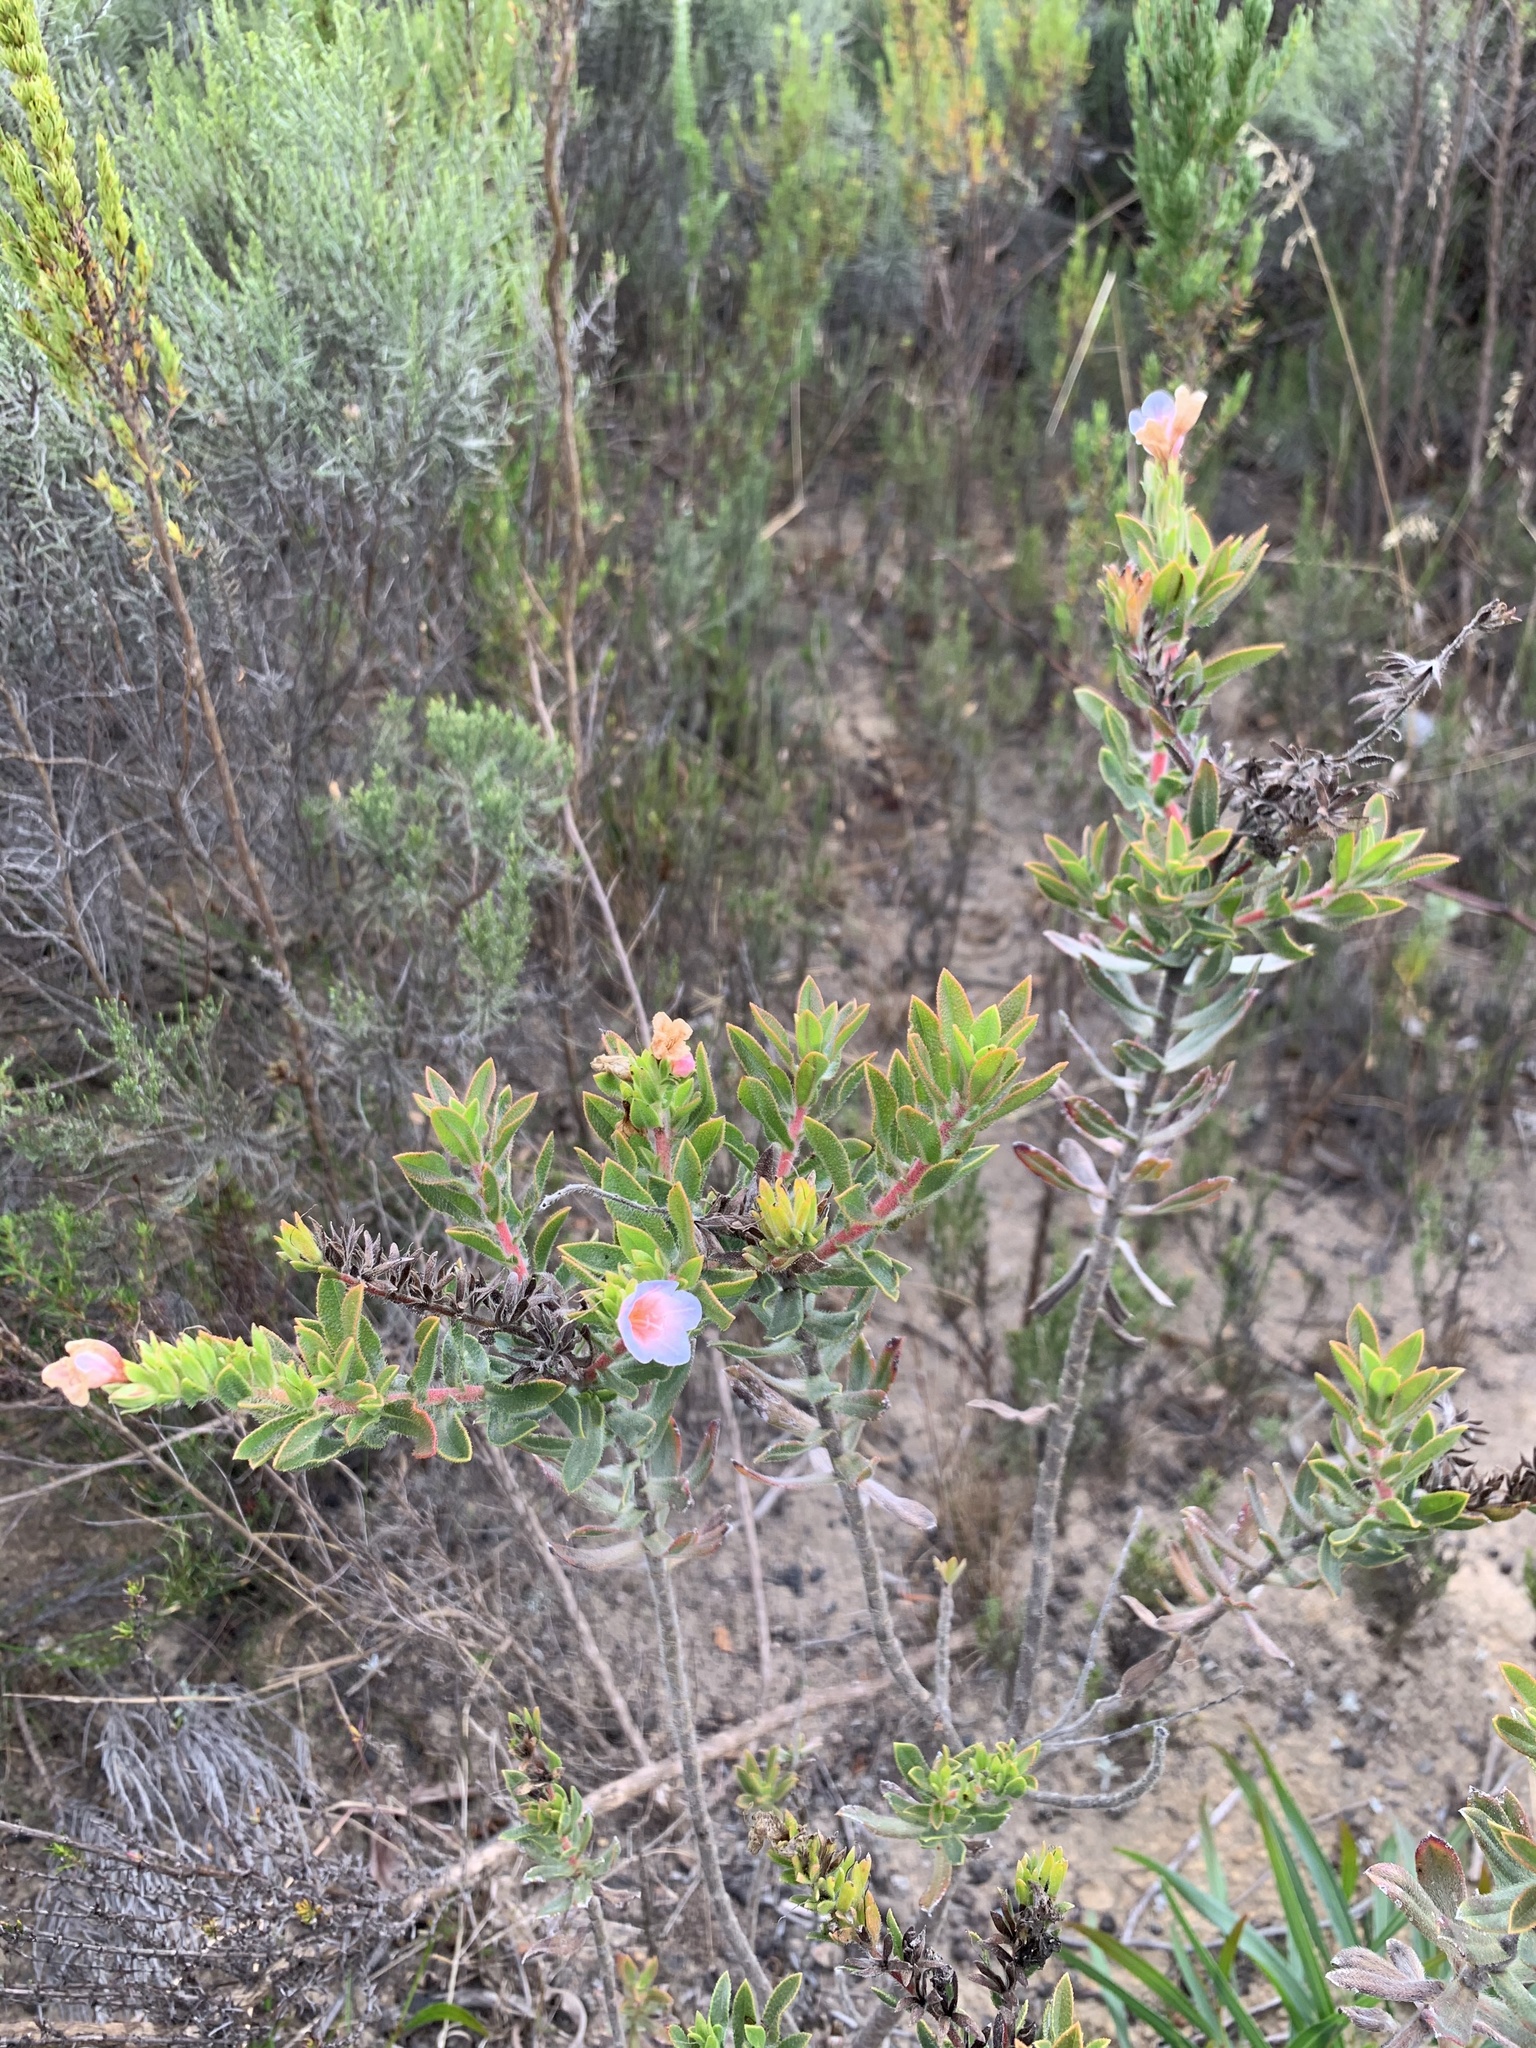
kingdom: Plantae
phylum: Tracheophyta
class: Magnoliopsida
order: Boraginales
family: Boraginaceae
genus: Lobostemon
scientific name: Lobostemon fruticosus
